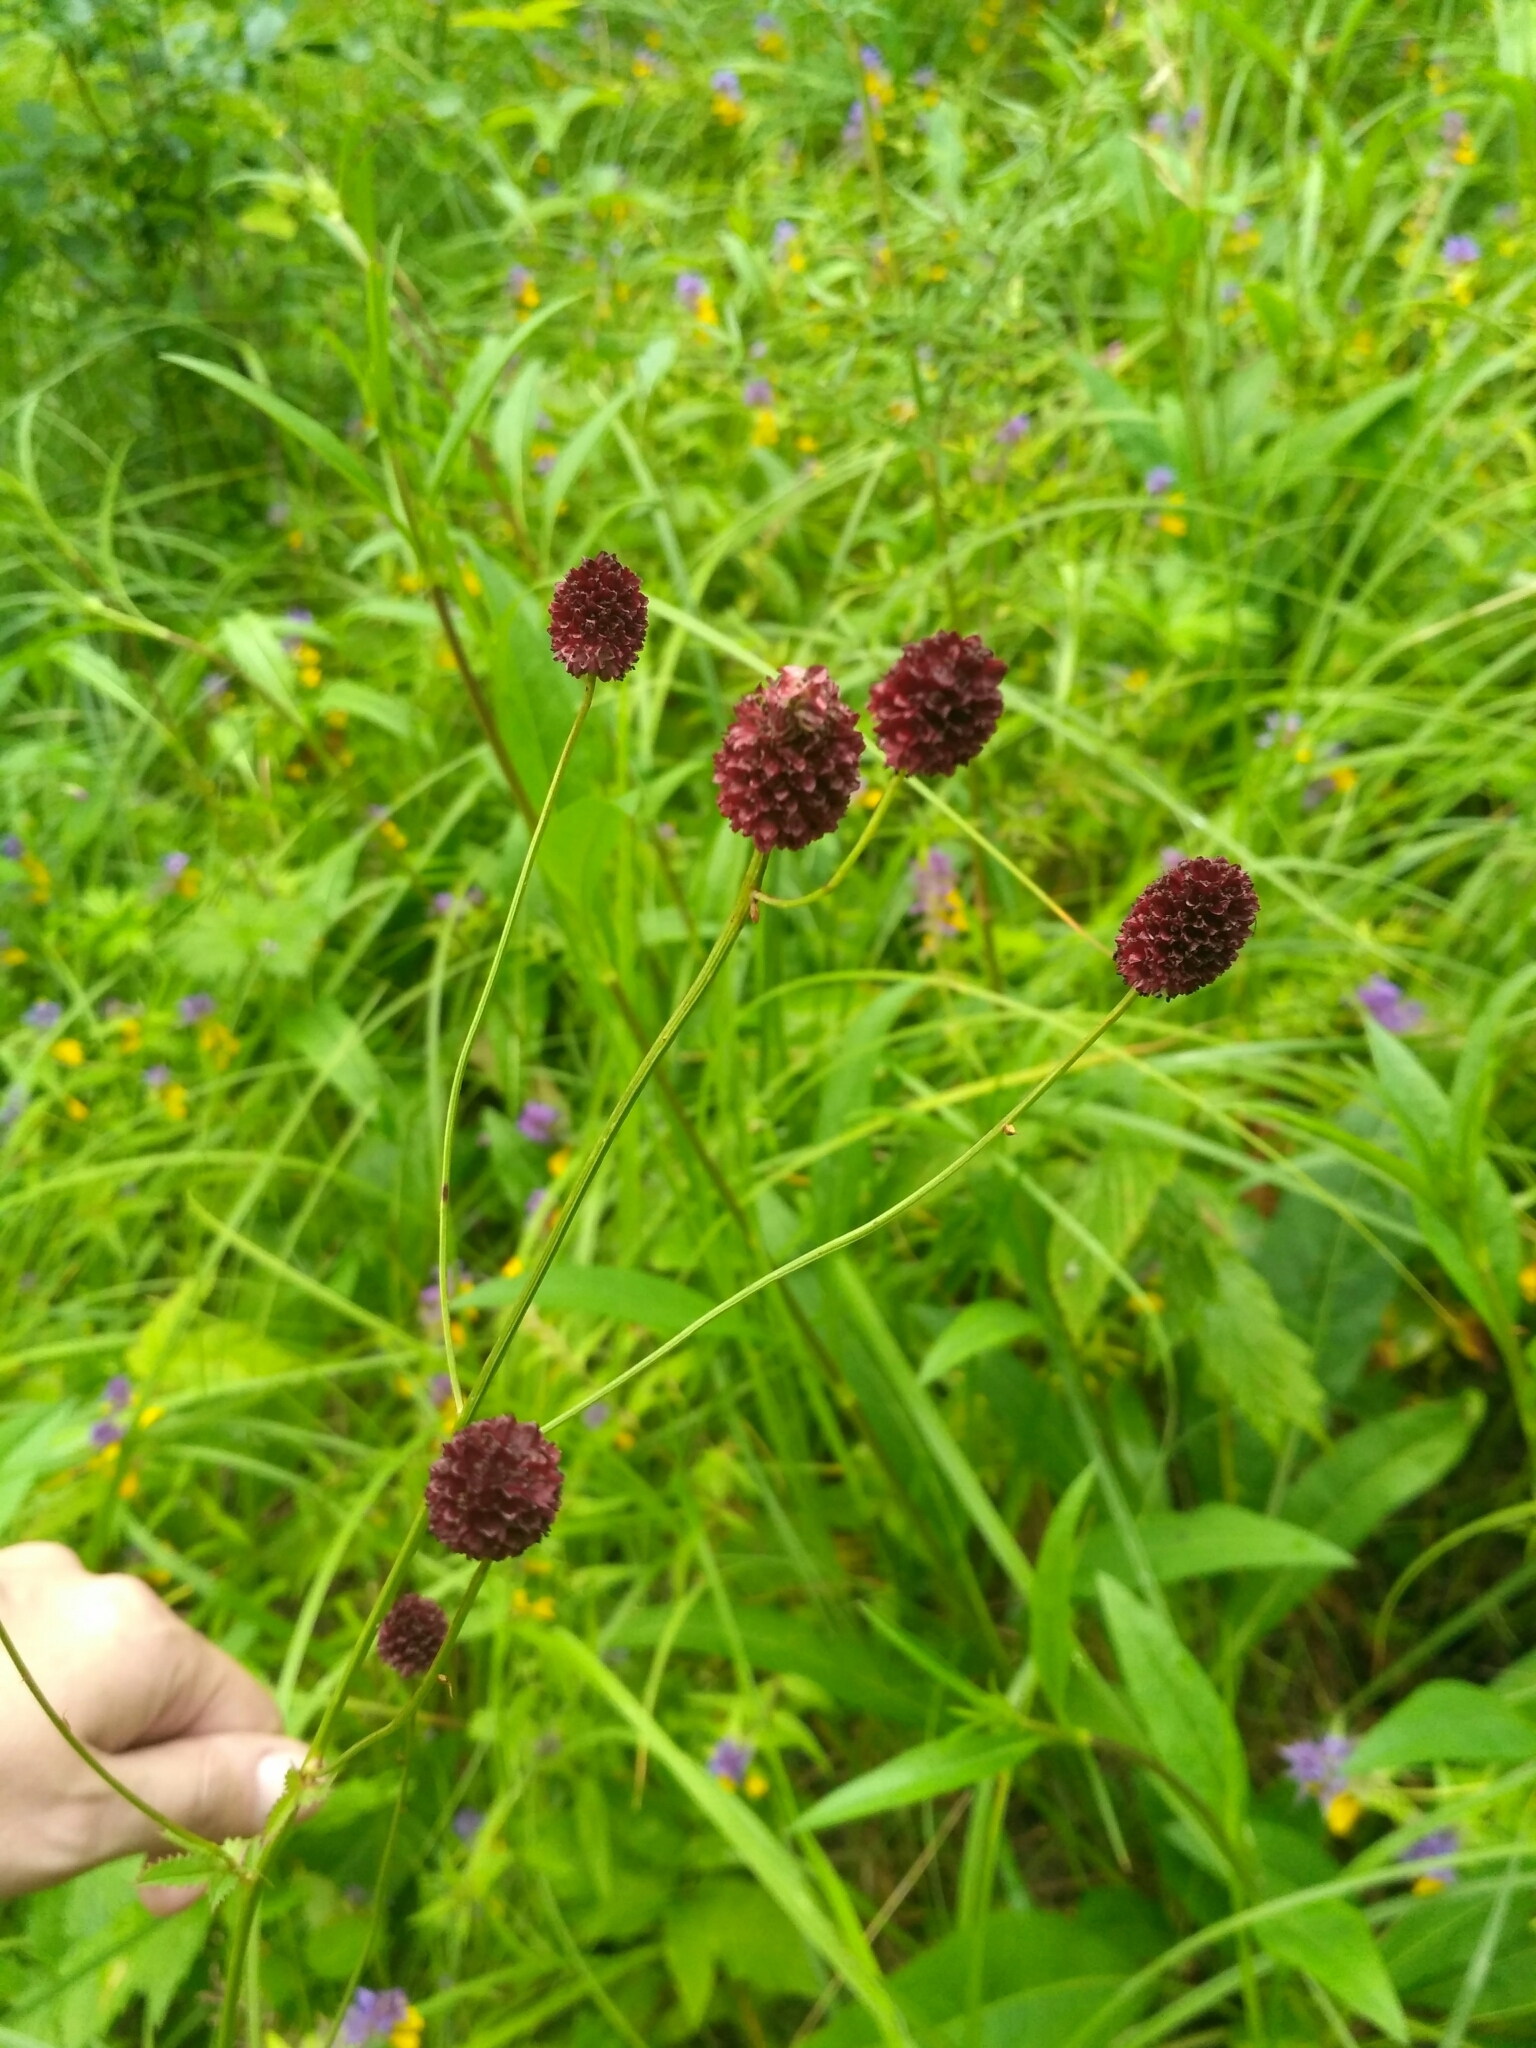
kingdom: Plantae
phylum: Tracheophyta
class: Magnoliopsida
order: Rosales
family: Rosaceae
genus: Sanguisorba
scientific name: Sanguisorba officinalis
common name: Great burnet
